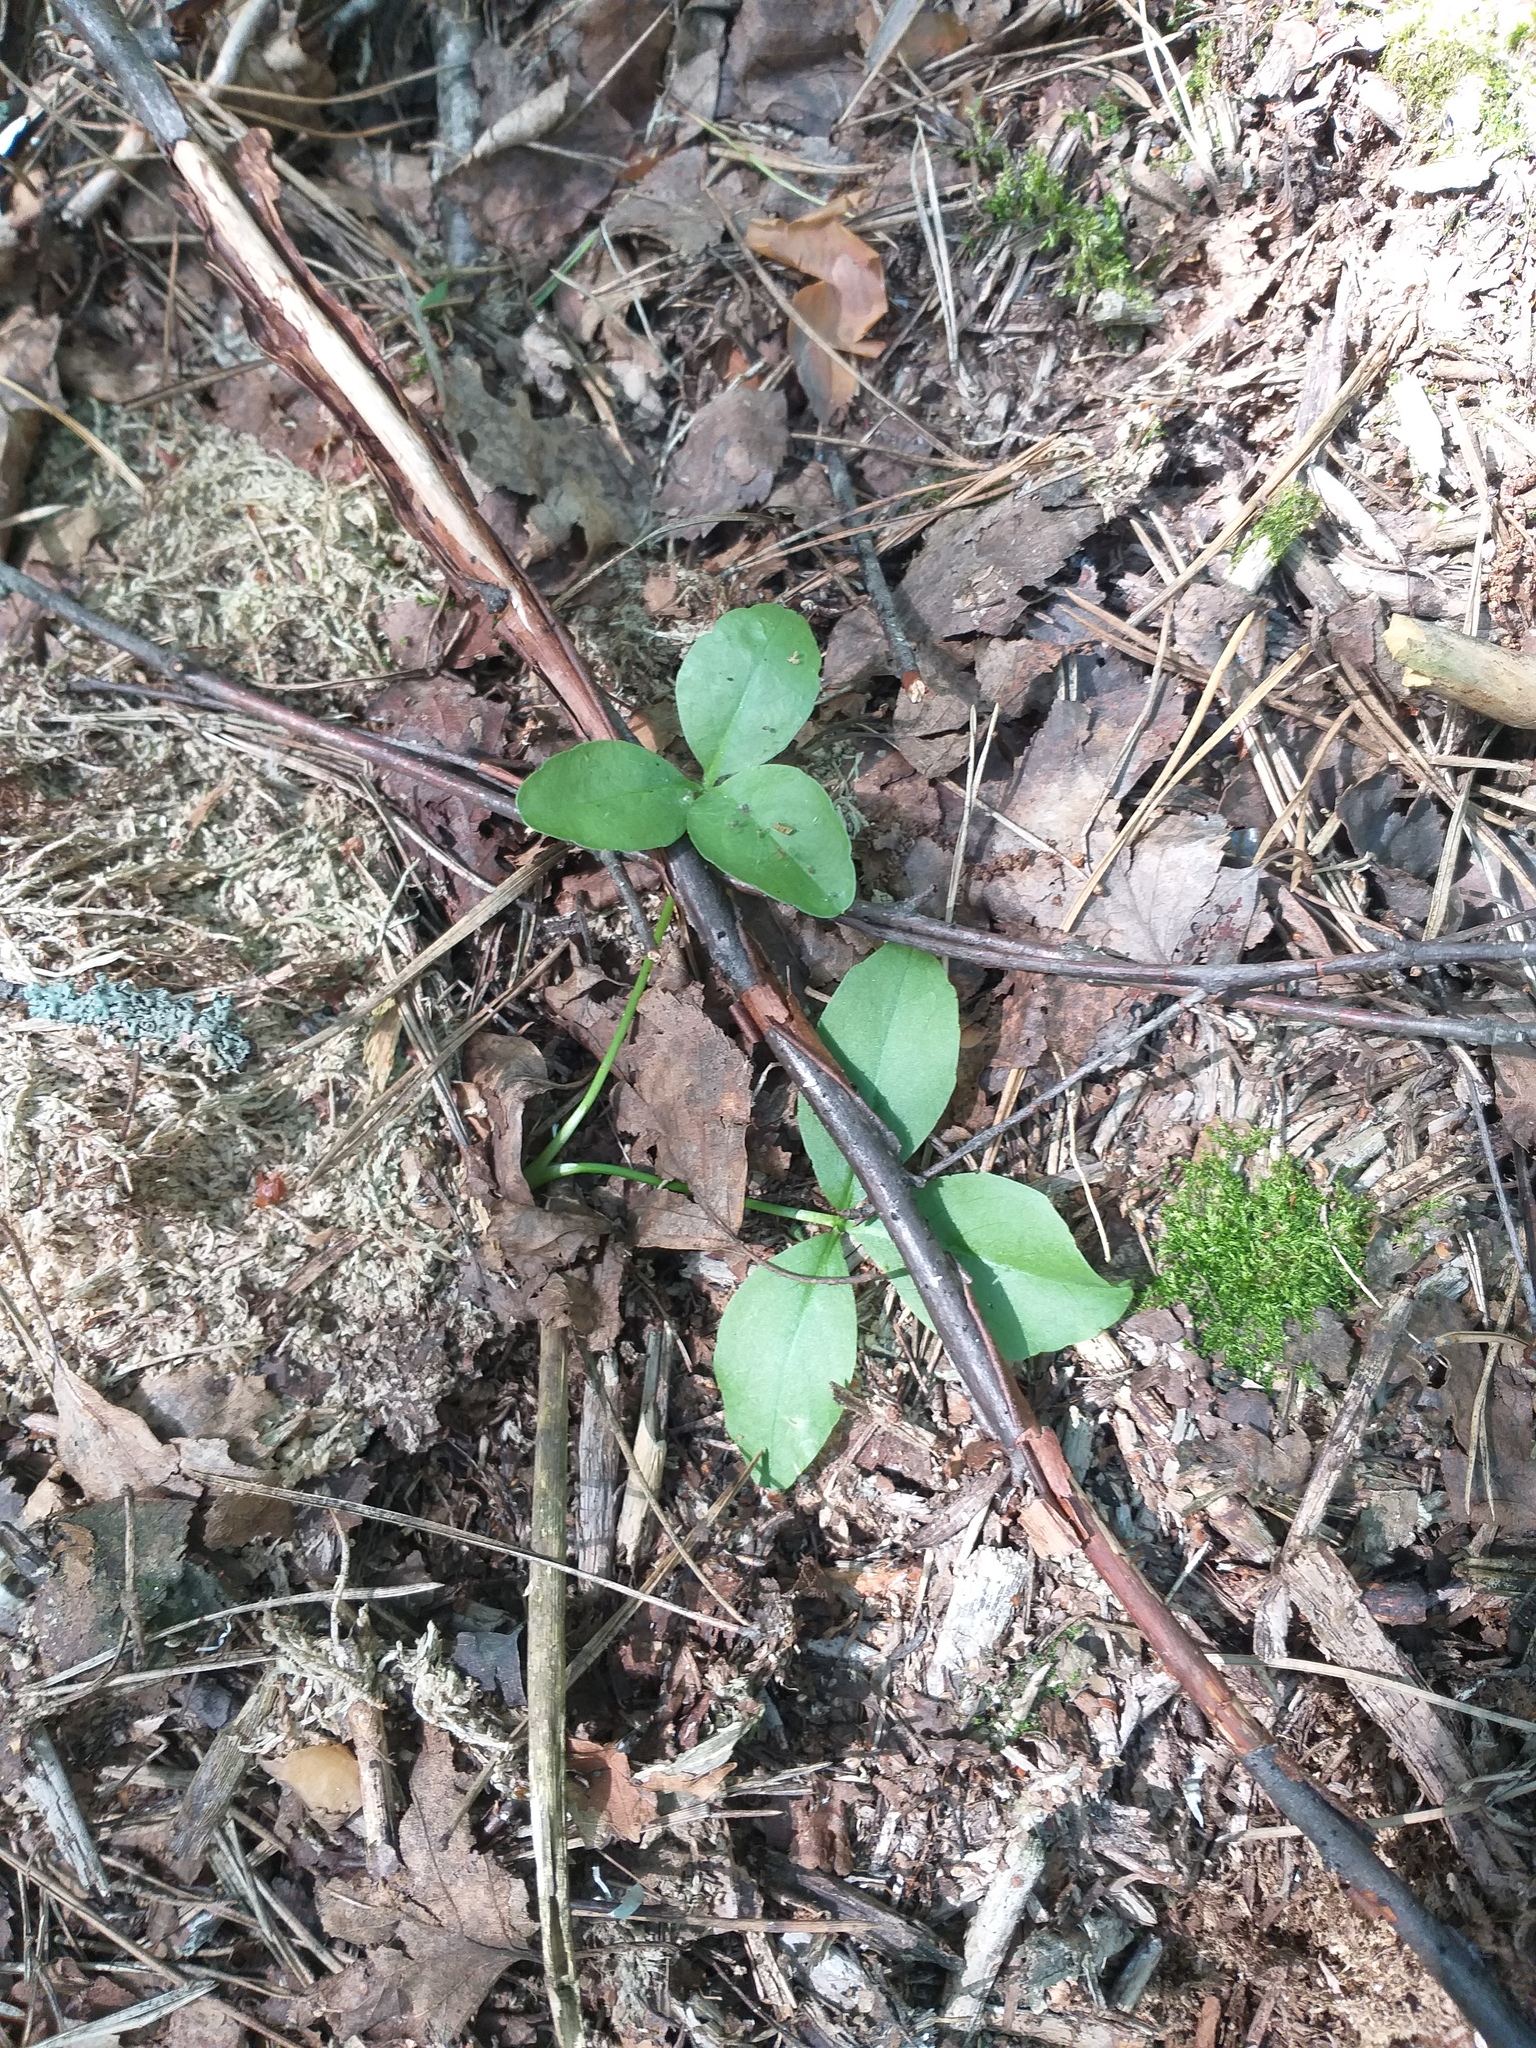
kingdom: Plantae
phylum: Tracheophyta
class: Magnoliopsida
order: Asterales
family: Menyanthaceae
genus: Menyanthes
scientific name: Menyanthes trifoliata
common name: Bogbean
